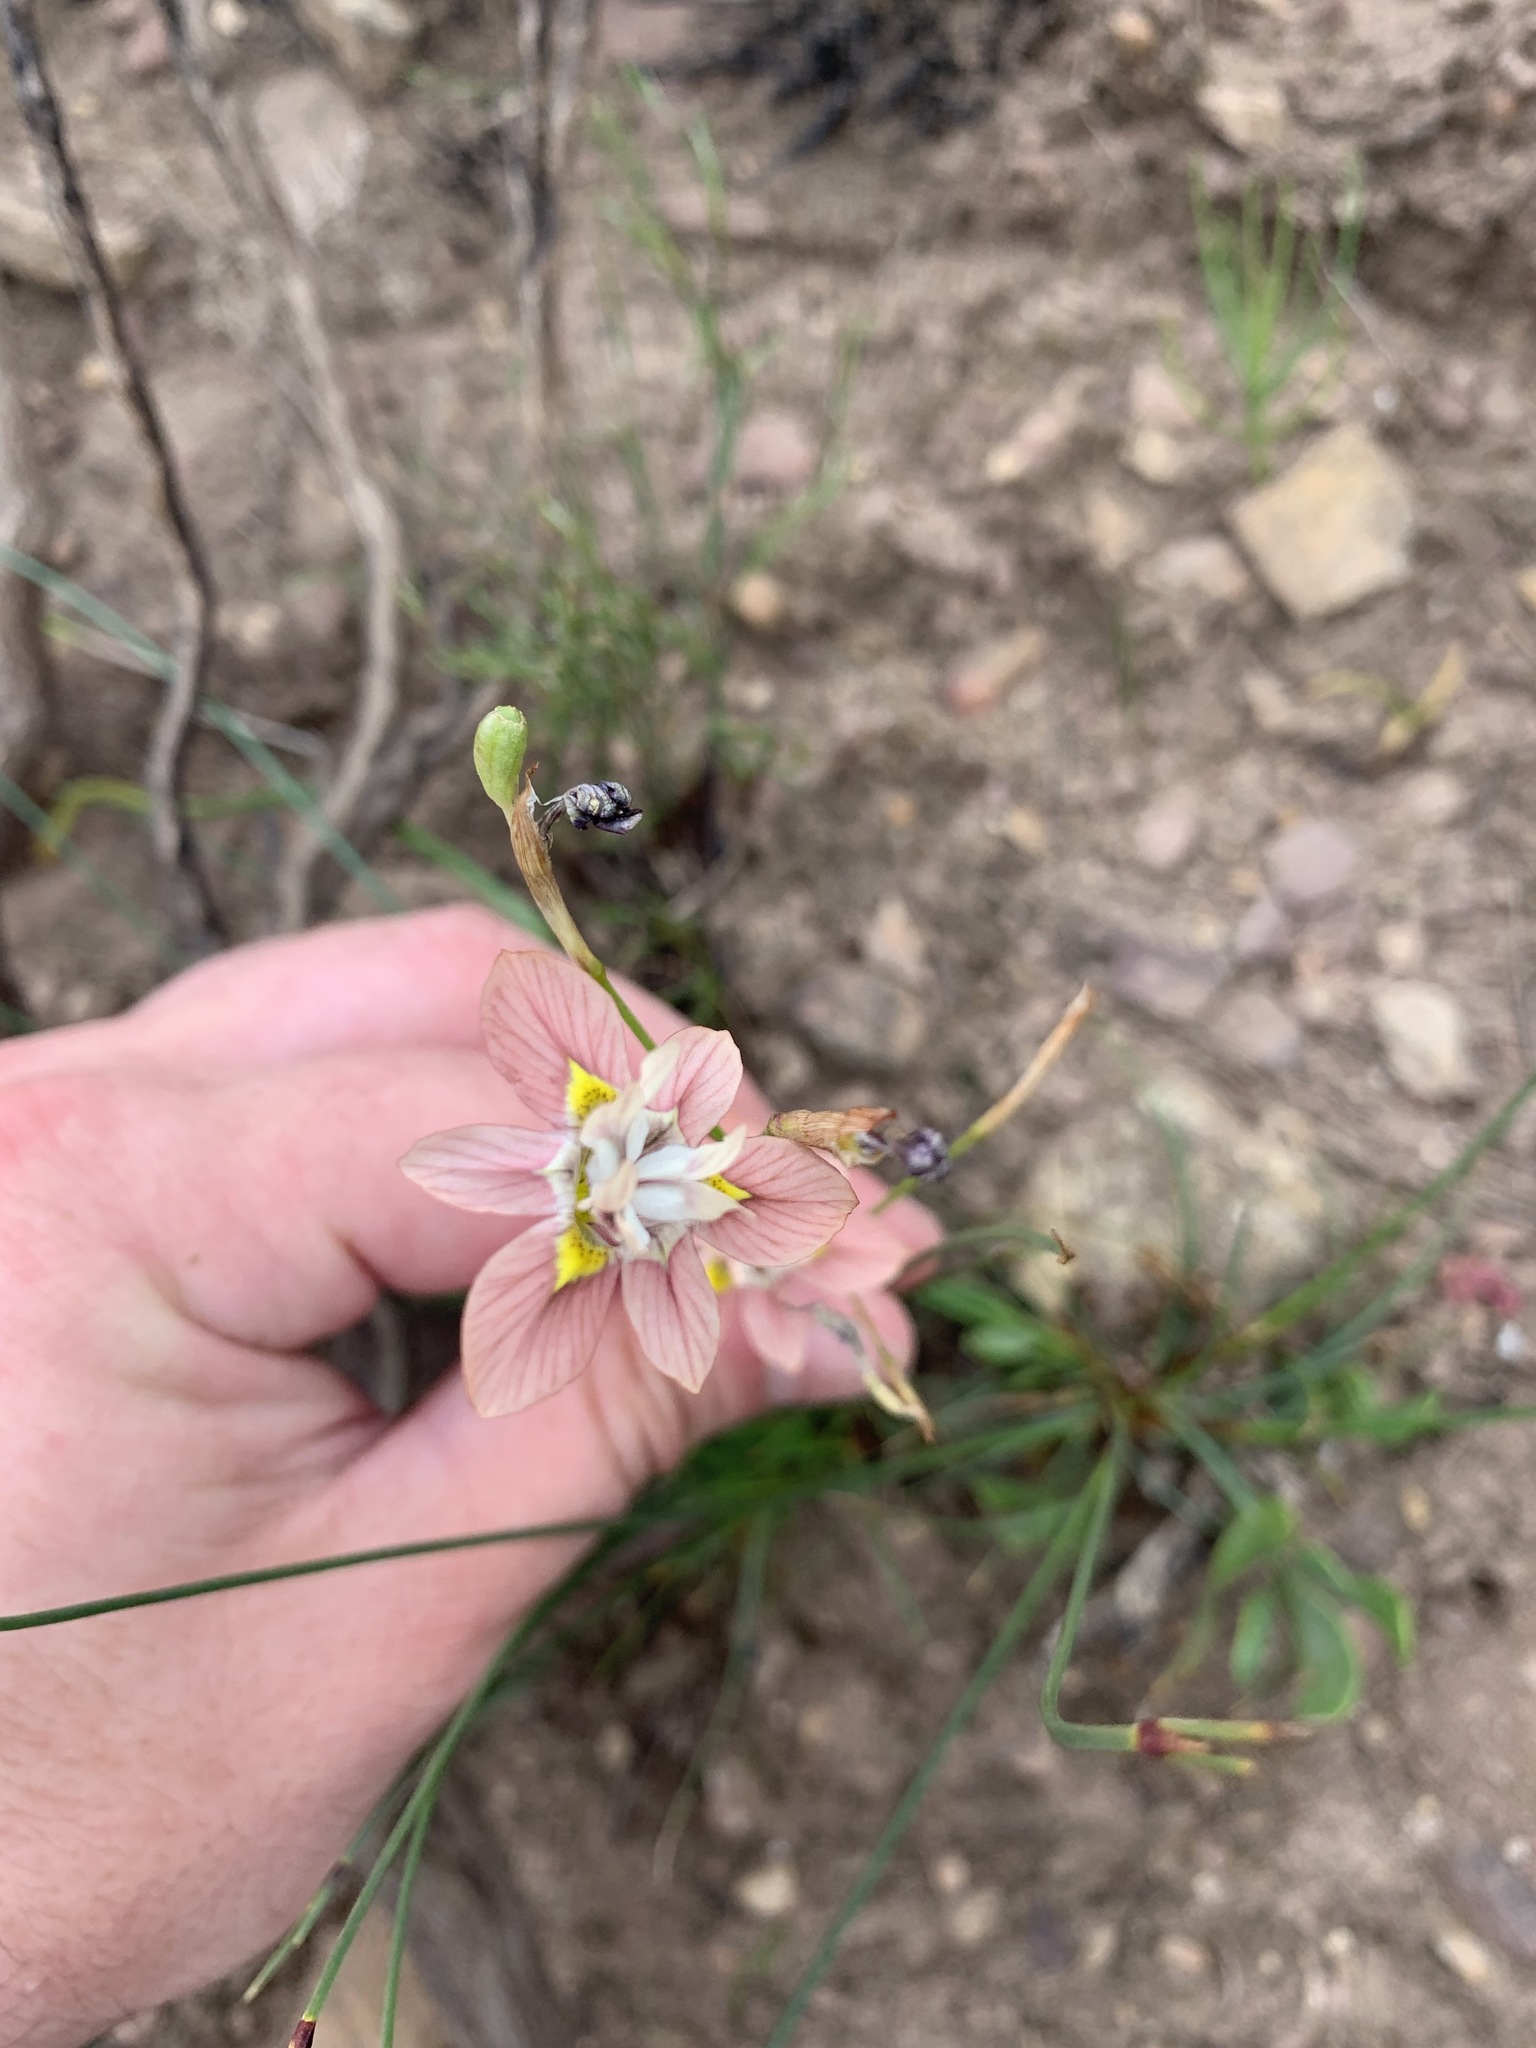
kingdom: Plantae
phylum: Tracheophyta
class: Liliopsida
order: Asparagales
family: Iridaceae
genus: Moraea
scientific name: Moraea gawleri
